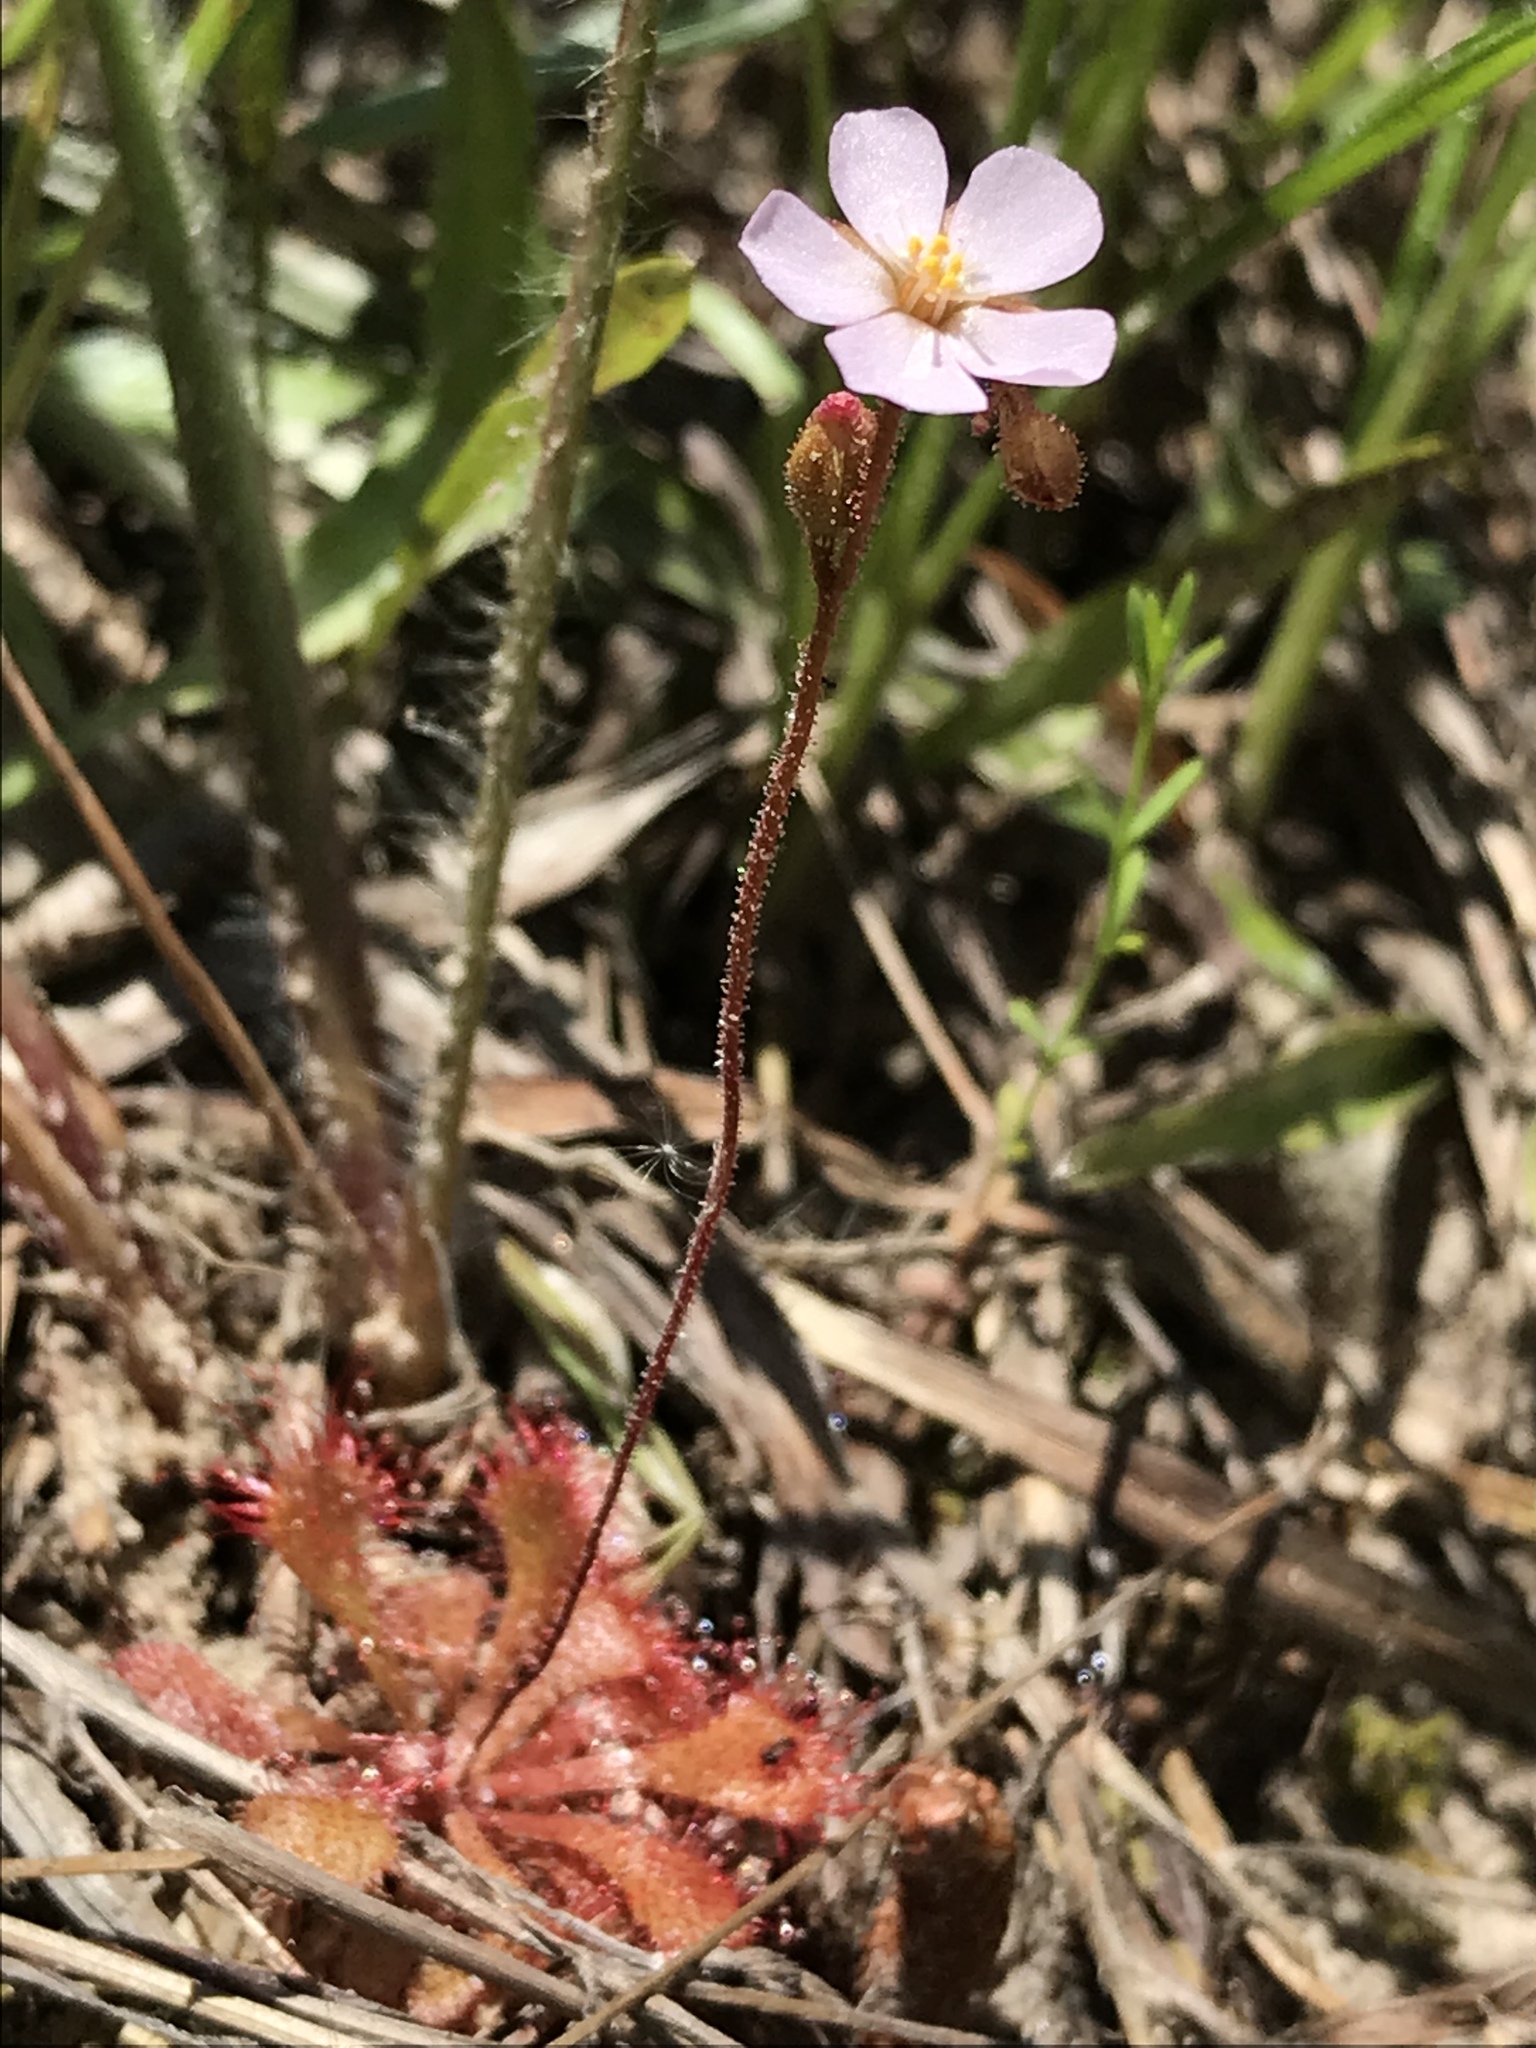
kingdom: Plantae
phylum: Tracheophyta
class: Magnoliopsida
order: Caryophyllales
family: Droseraceae
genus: Drosera
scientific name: Drosera brevifolia
